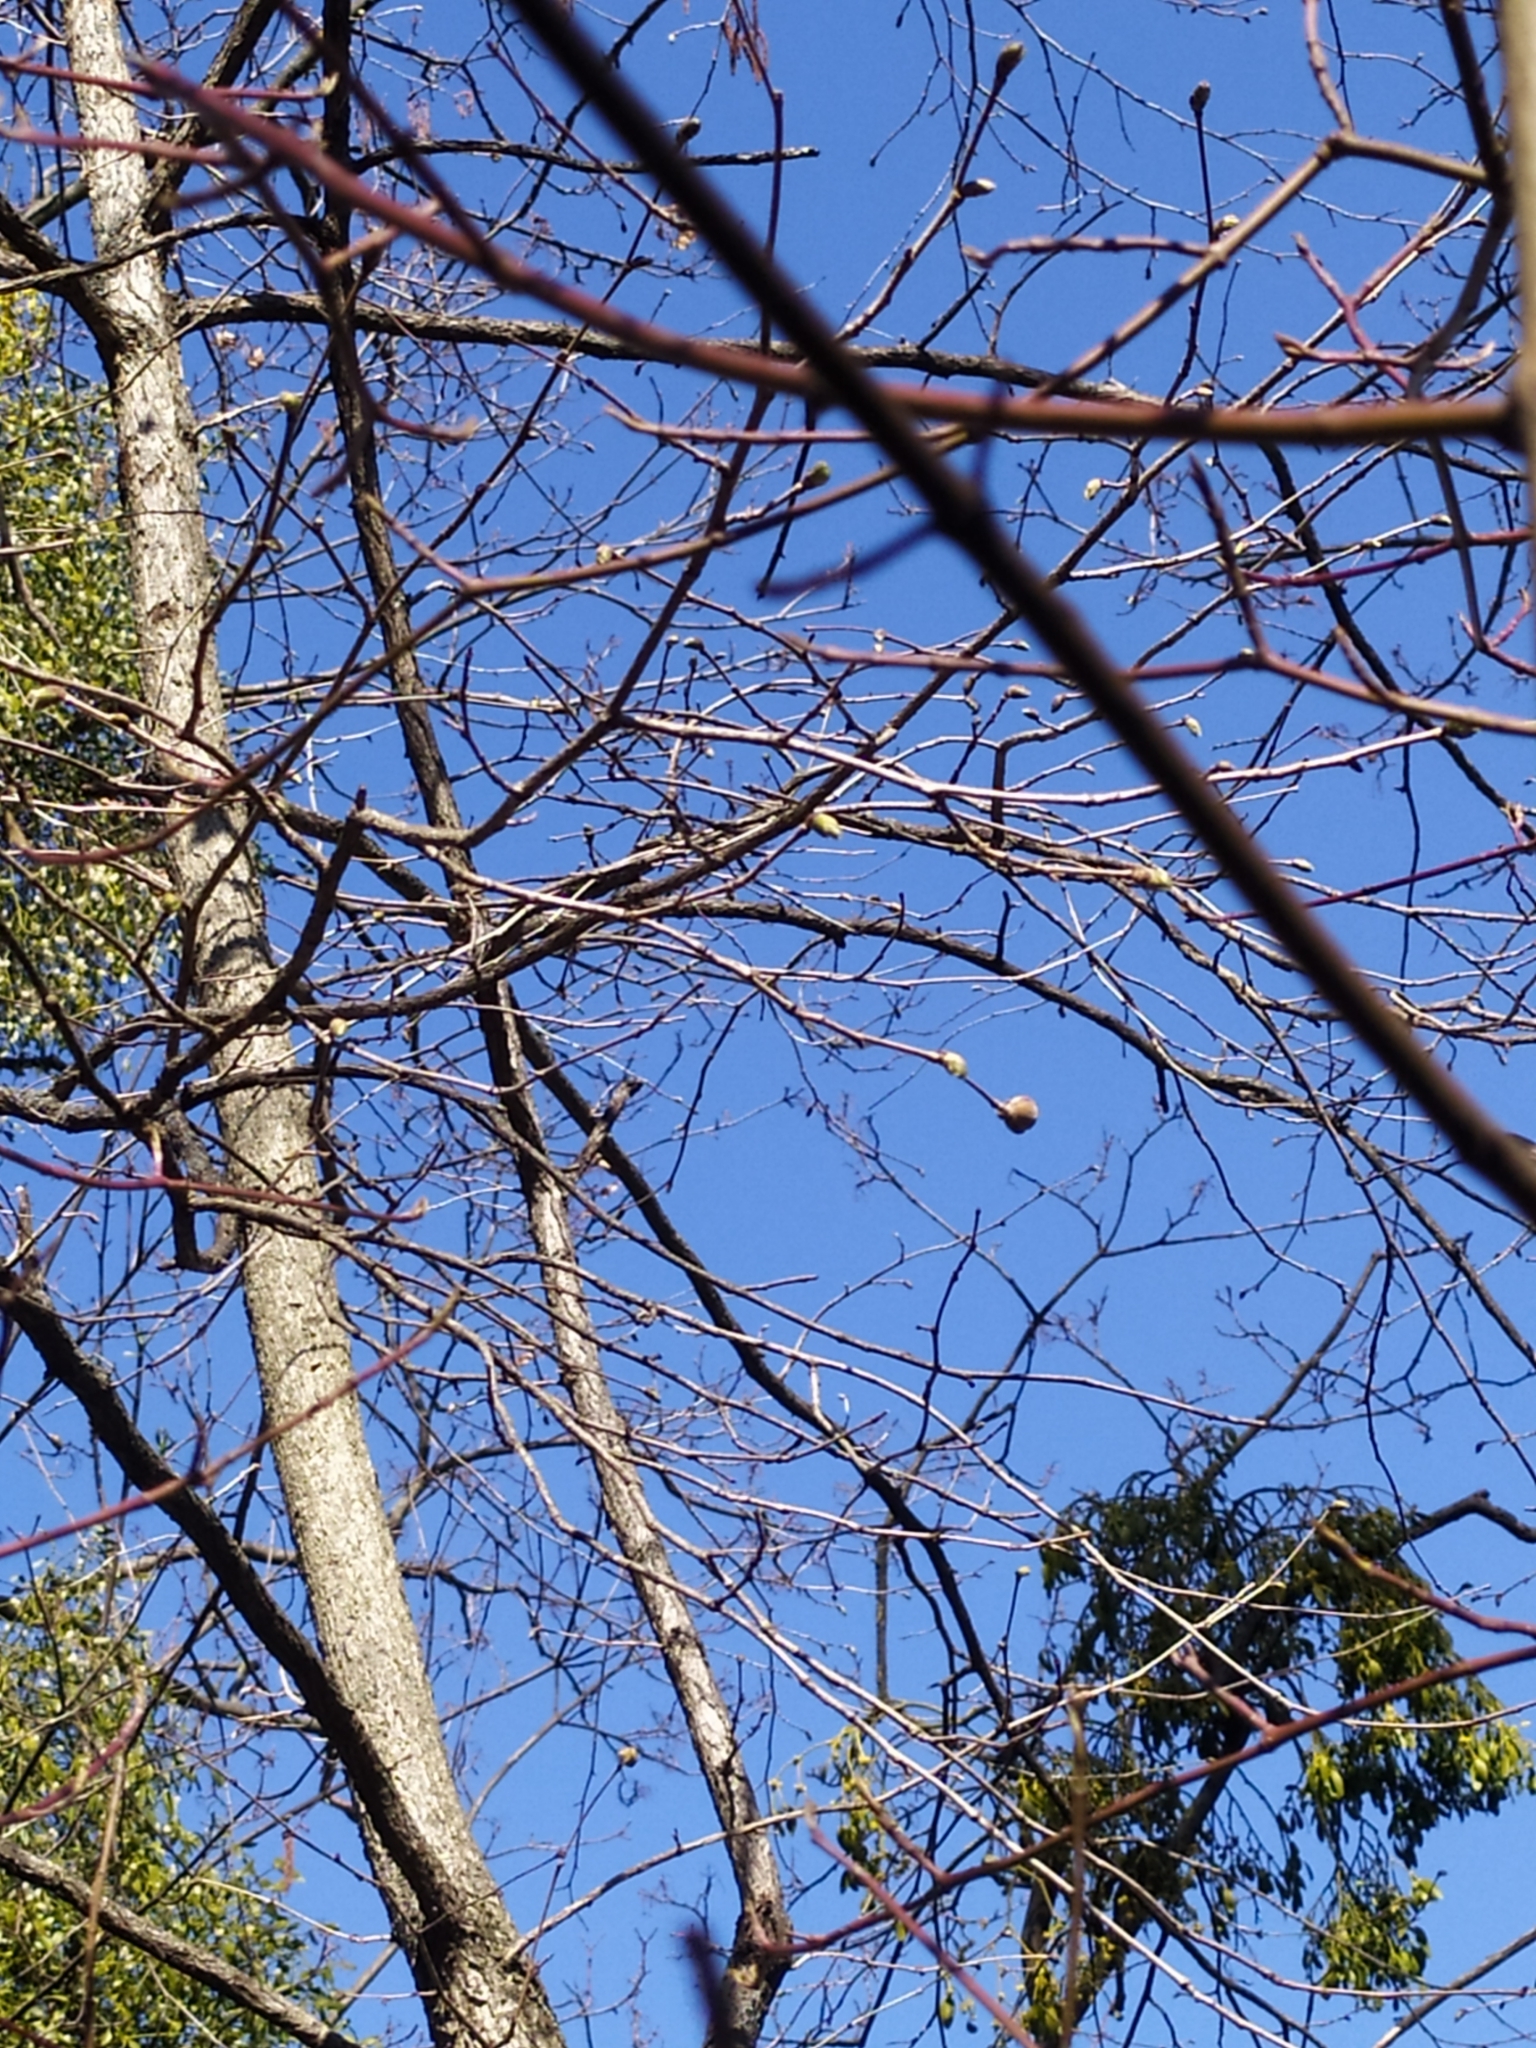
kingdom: Animalia
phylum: Arthropoda
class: Arachnida
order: Trombidiformes
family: Phytoptidae
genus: Phytoptus
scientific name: Phytoptus avellanae
